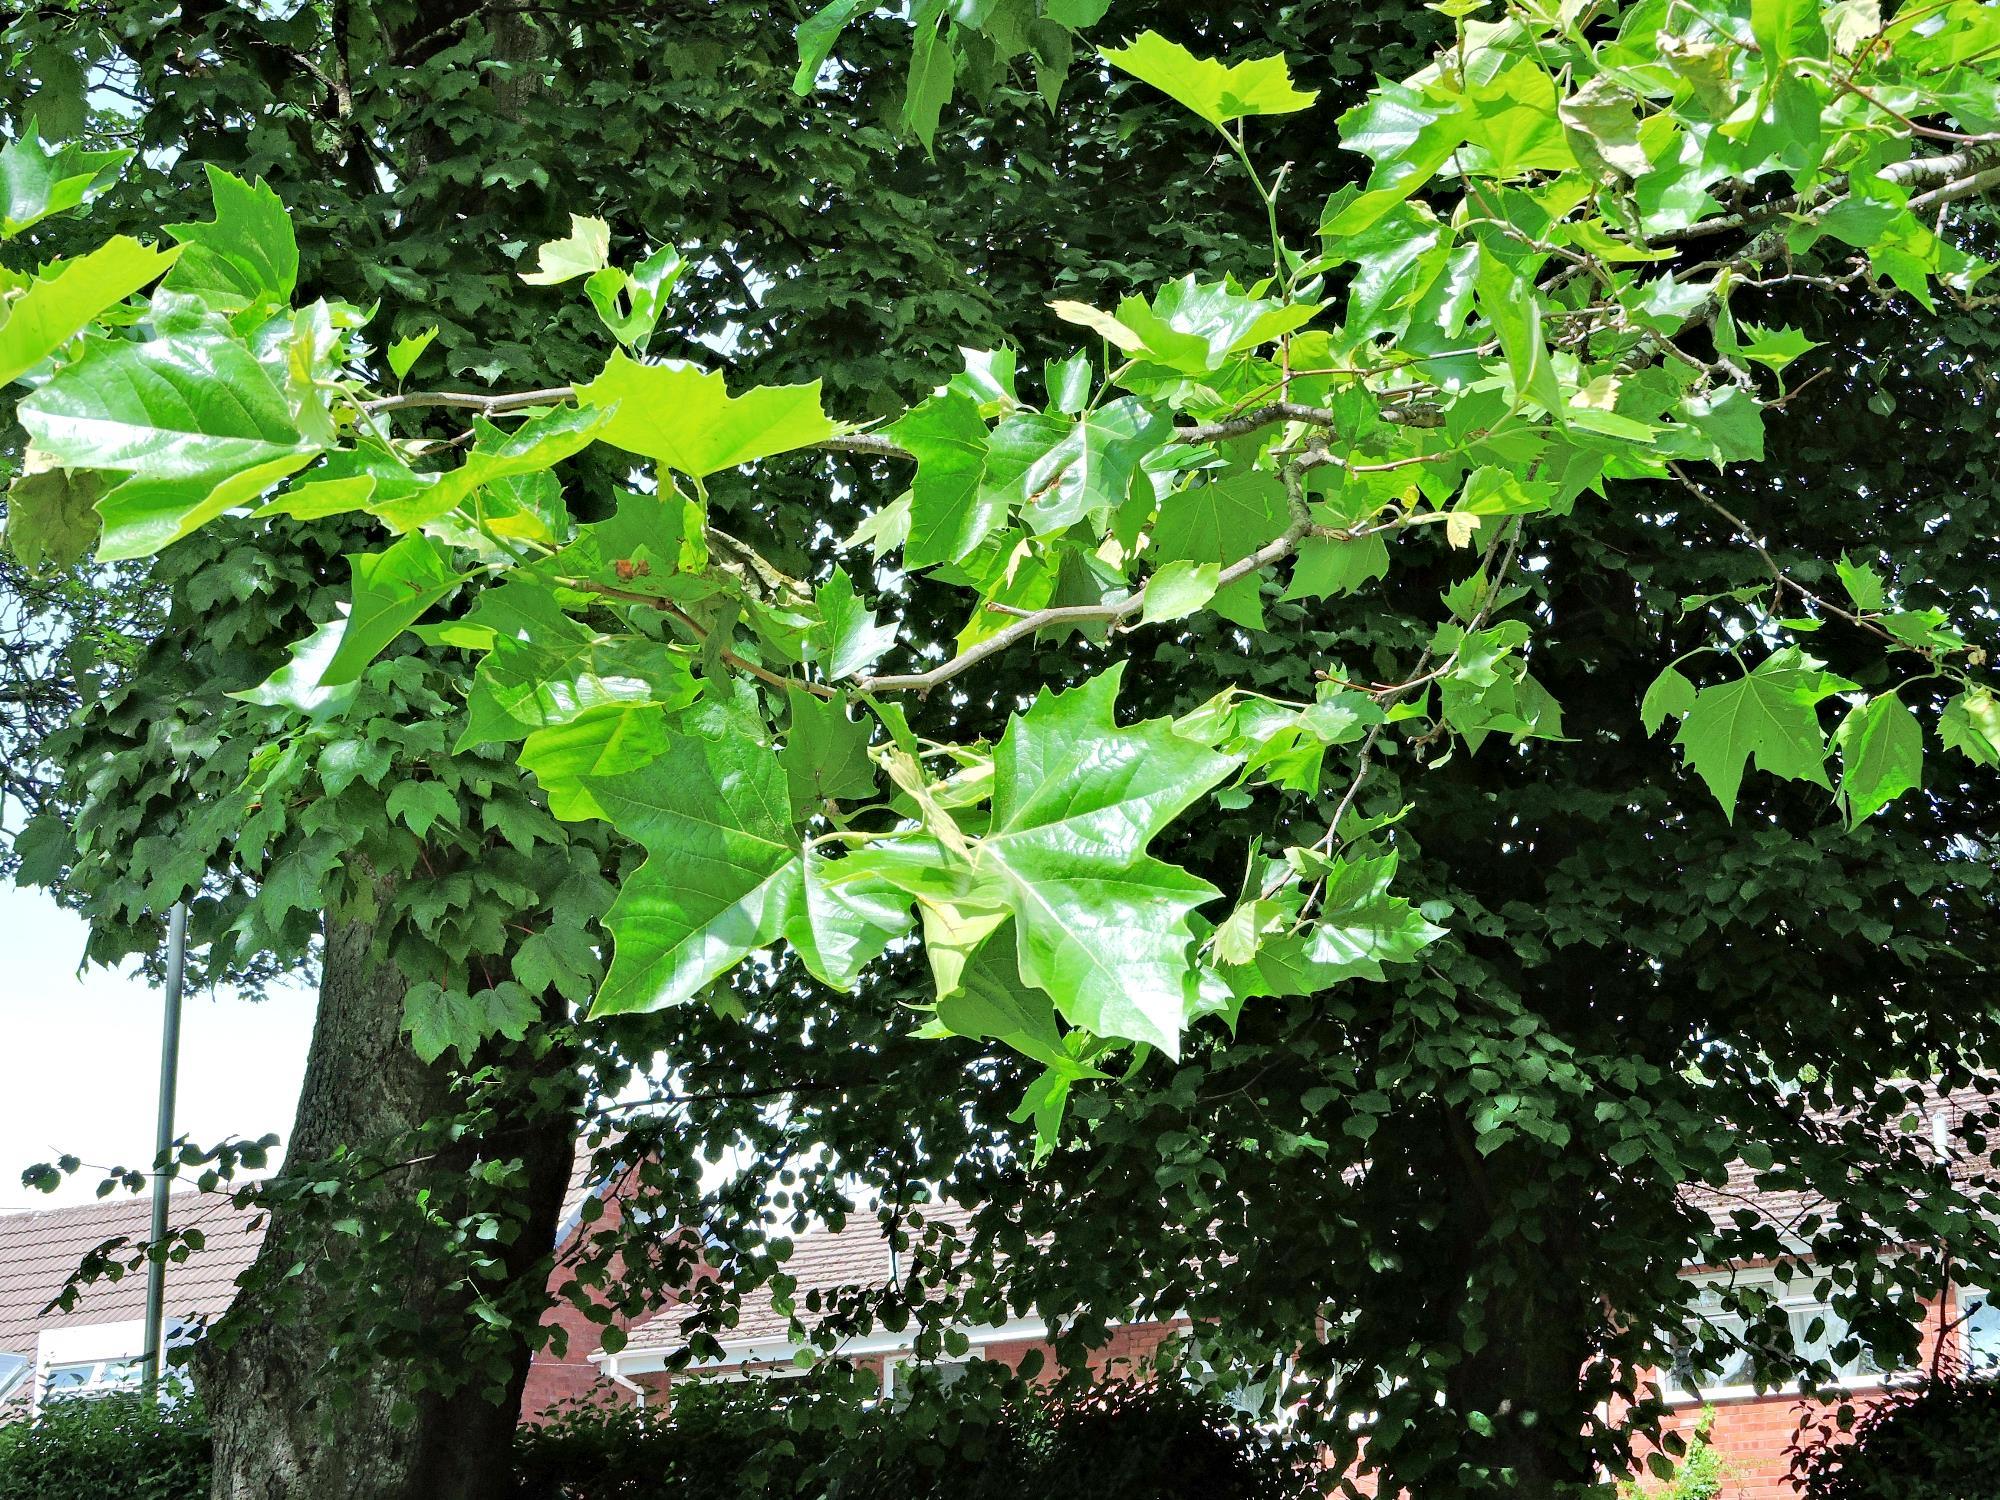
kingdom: Plantae
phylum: Tracheophyta
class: Magnoliopsida
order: Proteales
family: Platanaceae
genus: Platanus
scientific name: Platanus hispanica
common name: London plane
